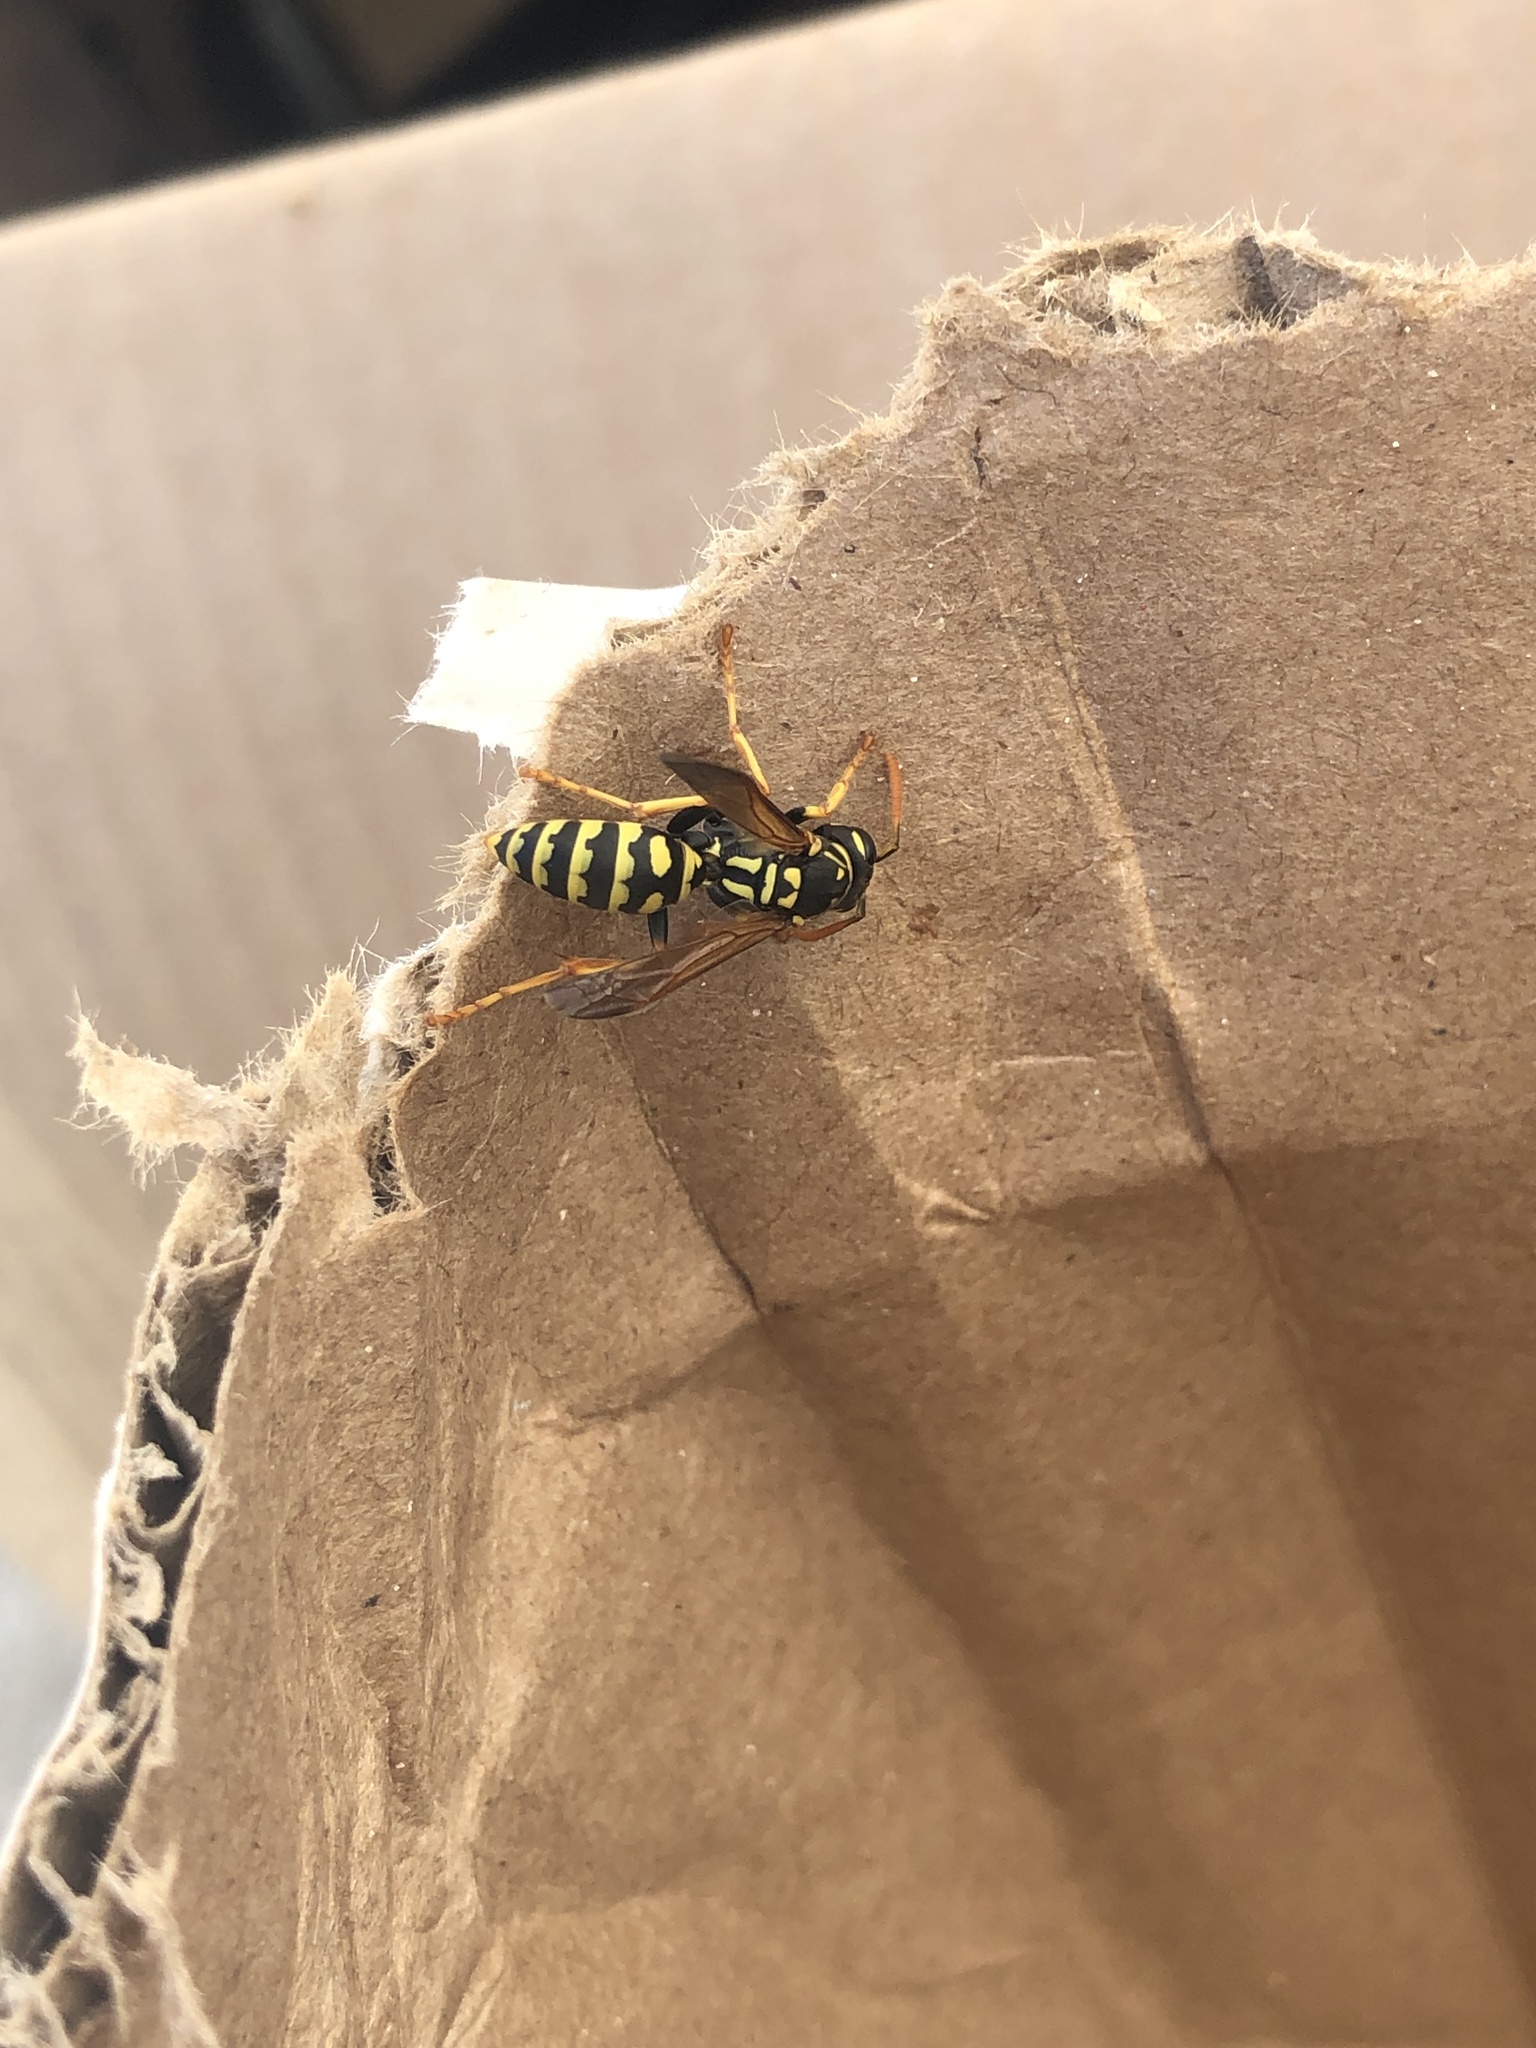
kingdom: Animalia
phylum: Arthropoda
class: Insecta
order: Hymenoptera
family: Eumenidae
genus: Polistes
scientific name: Polistes dominula
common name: Paper wasp
